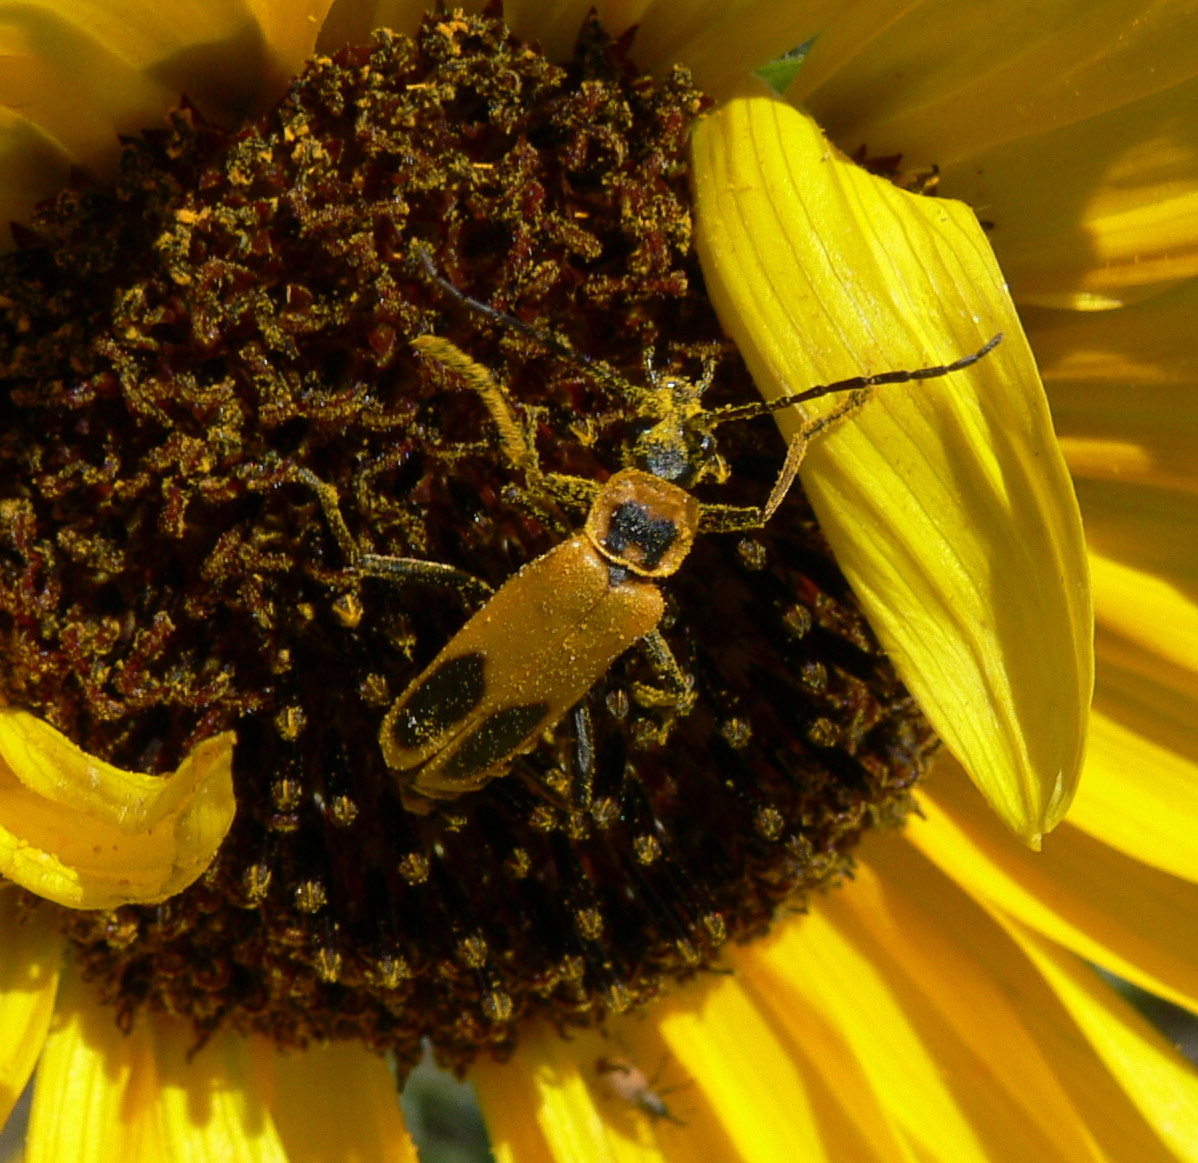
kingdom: Animalia
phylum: Arthropoda
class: Insecta
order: Coleoptera
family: Cantharidae
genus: Chauliognathus
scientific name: Chauliognathus pensylvanicus
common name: Goldenrod soldier beetle
